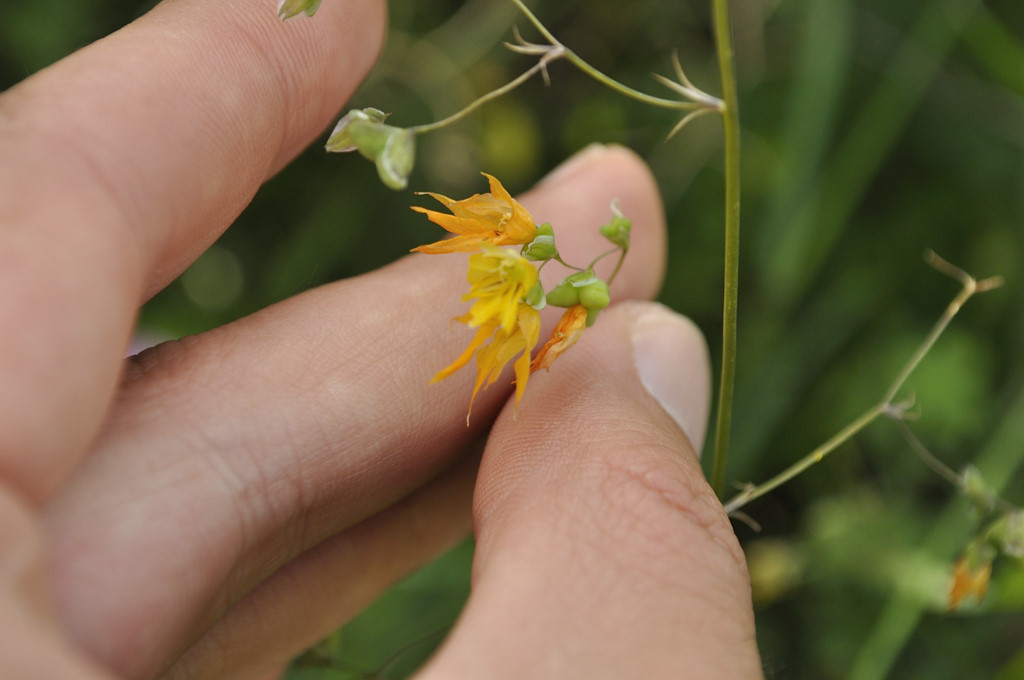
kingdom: Plantae
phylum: Tracheophyta
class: Liliopsida
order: Asparagales
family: Iridaceae
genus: Melasphaerula
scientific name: Melasphaerula graminea
